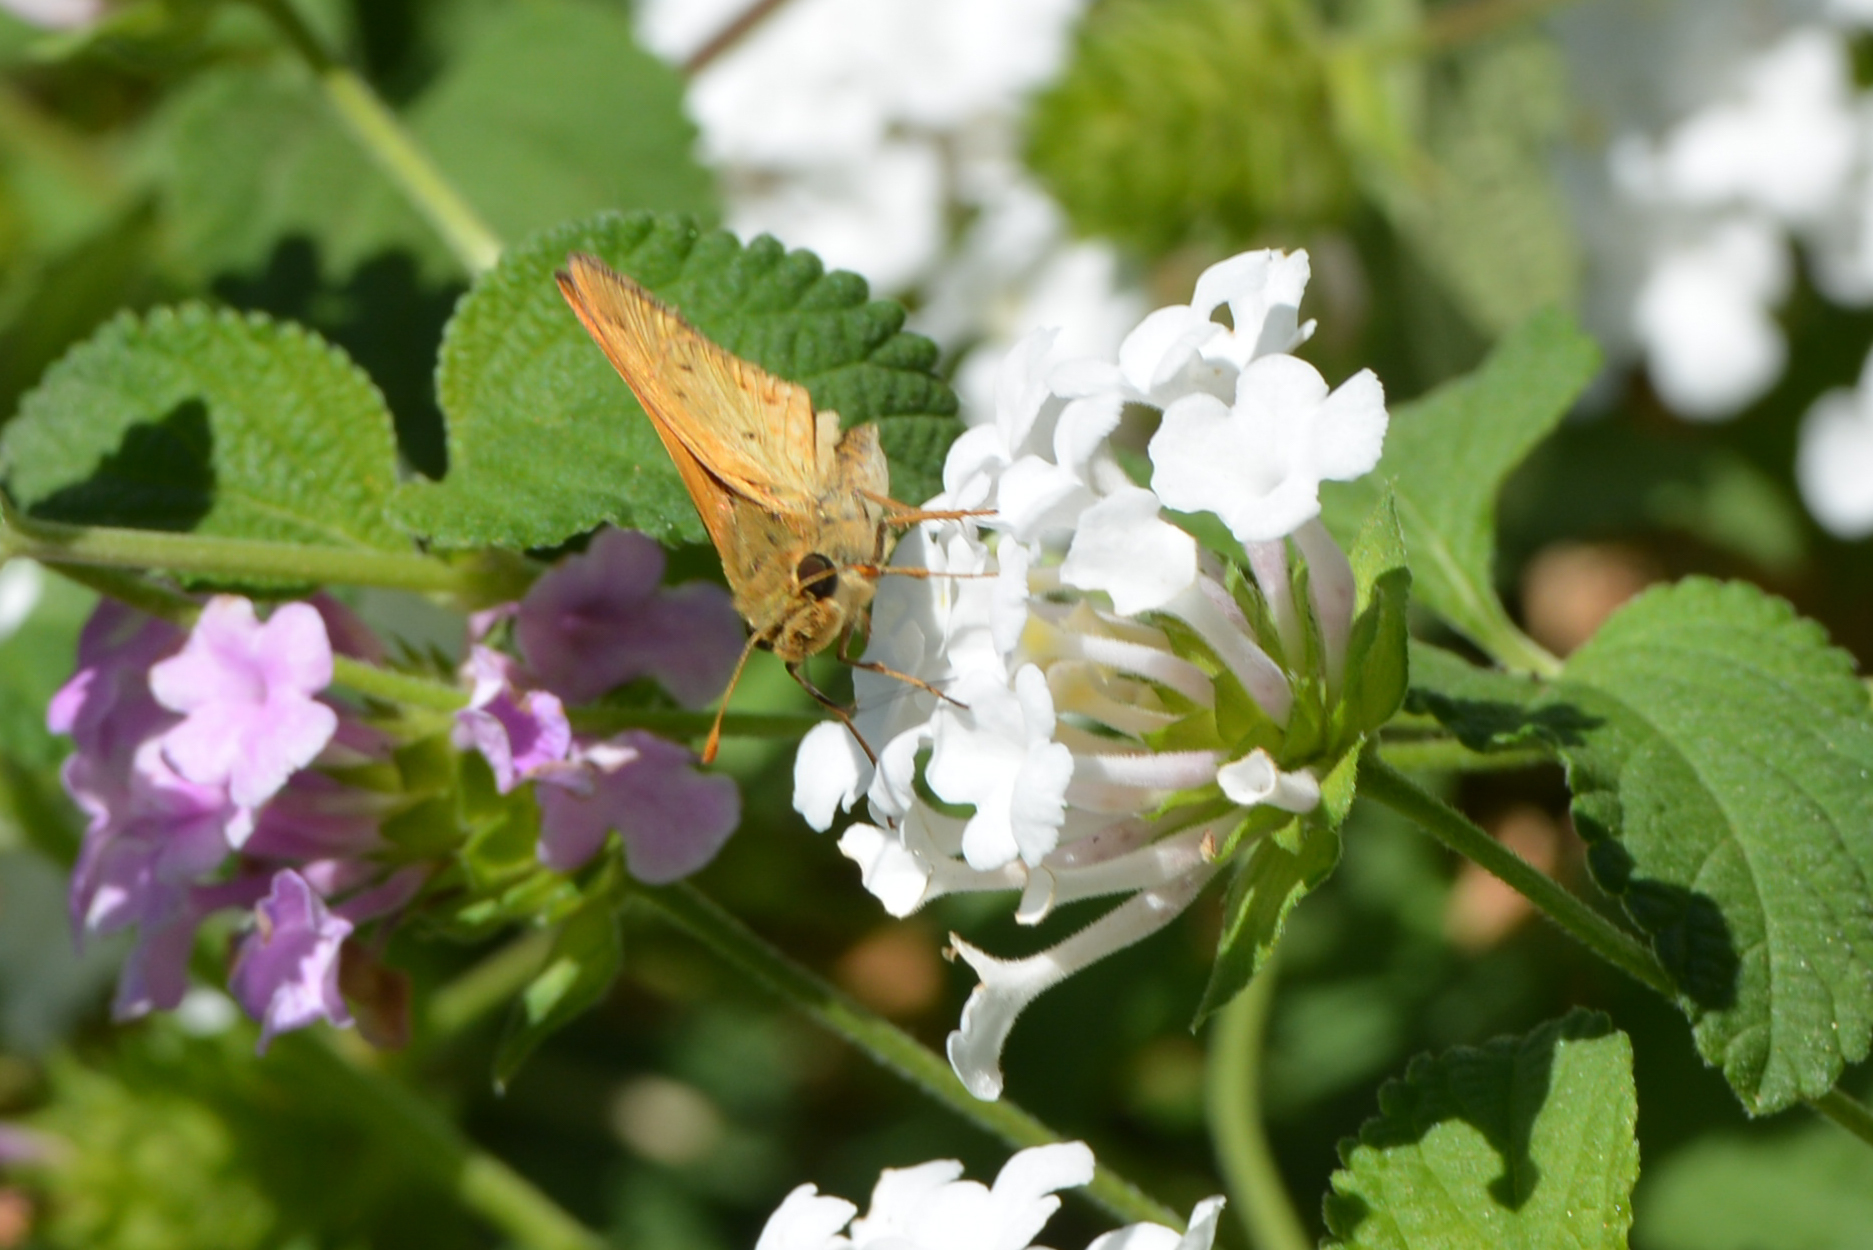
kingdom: Animalia
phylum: Arthropoda
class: Insecta
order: Lepidoptera
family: Hesperiidae
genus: Hylephila
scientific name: Hylephila phyleus
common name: Fiery skipper
